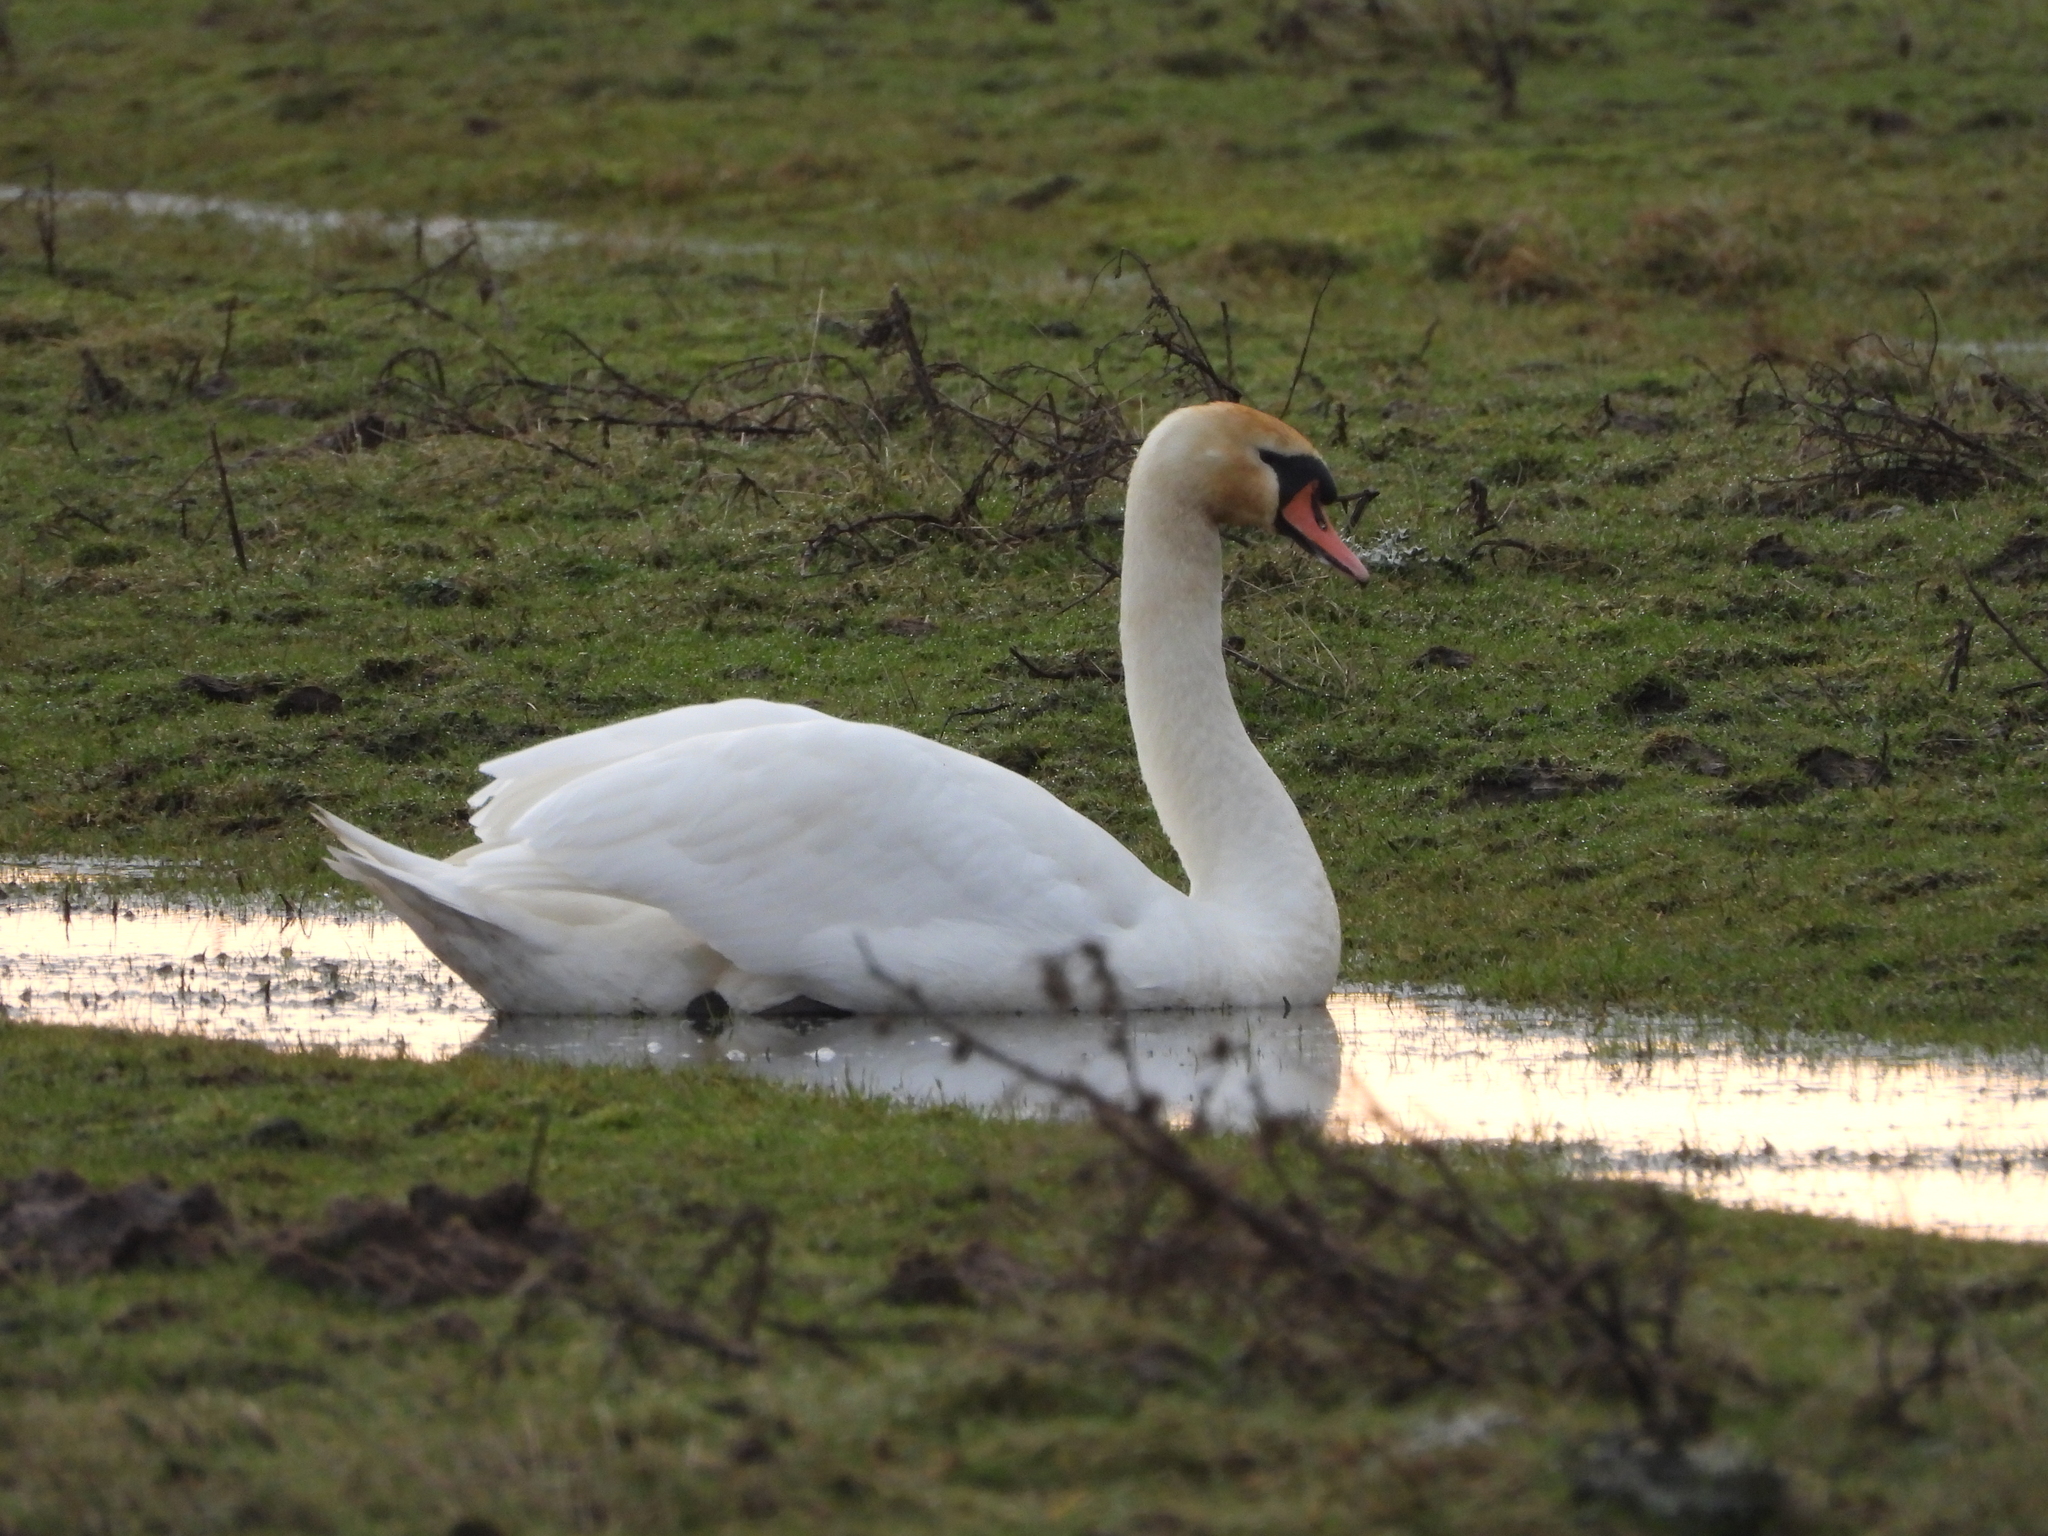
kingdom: Animalia
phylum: Chordata
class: Aves
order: Anseriformes
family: Anatidae
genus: Cygnus
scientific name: Cygnus olor
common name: Mute swan
